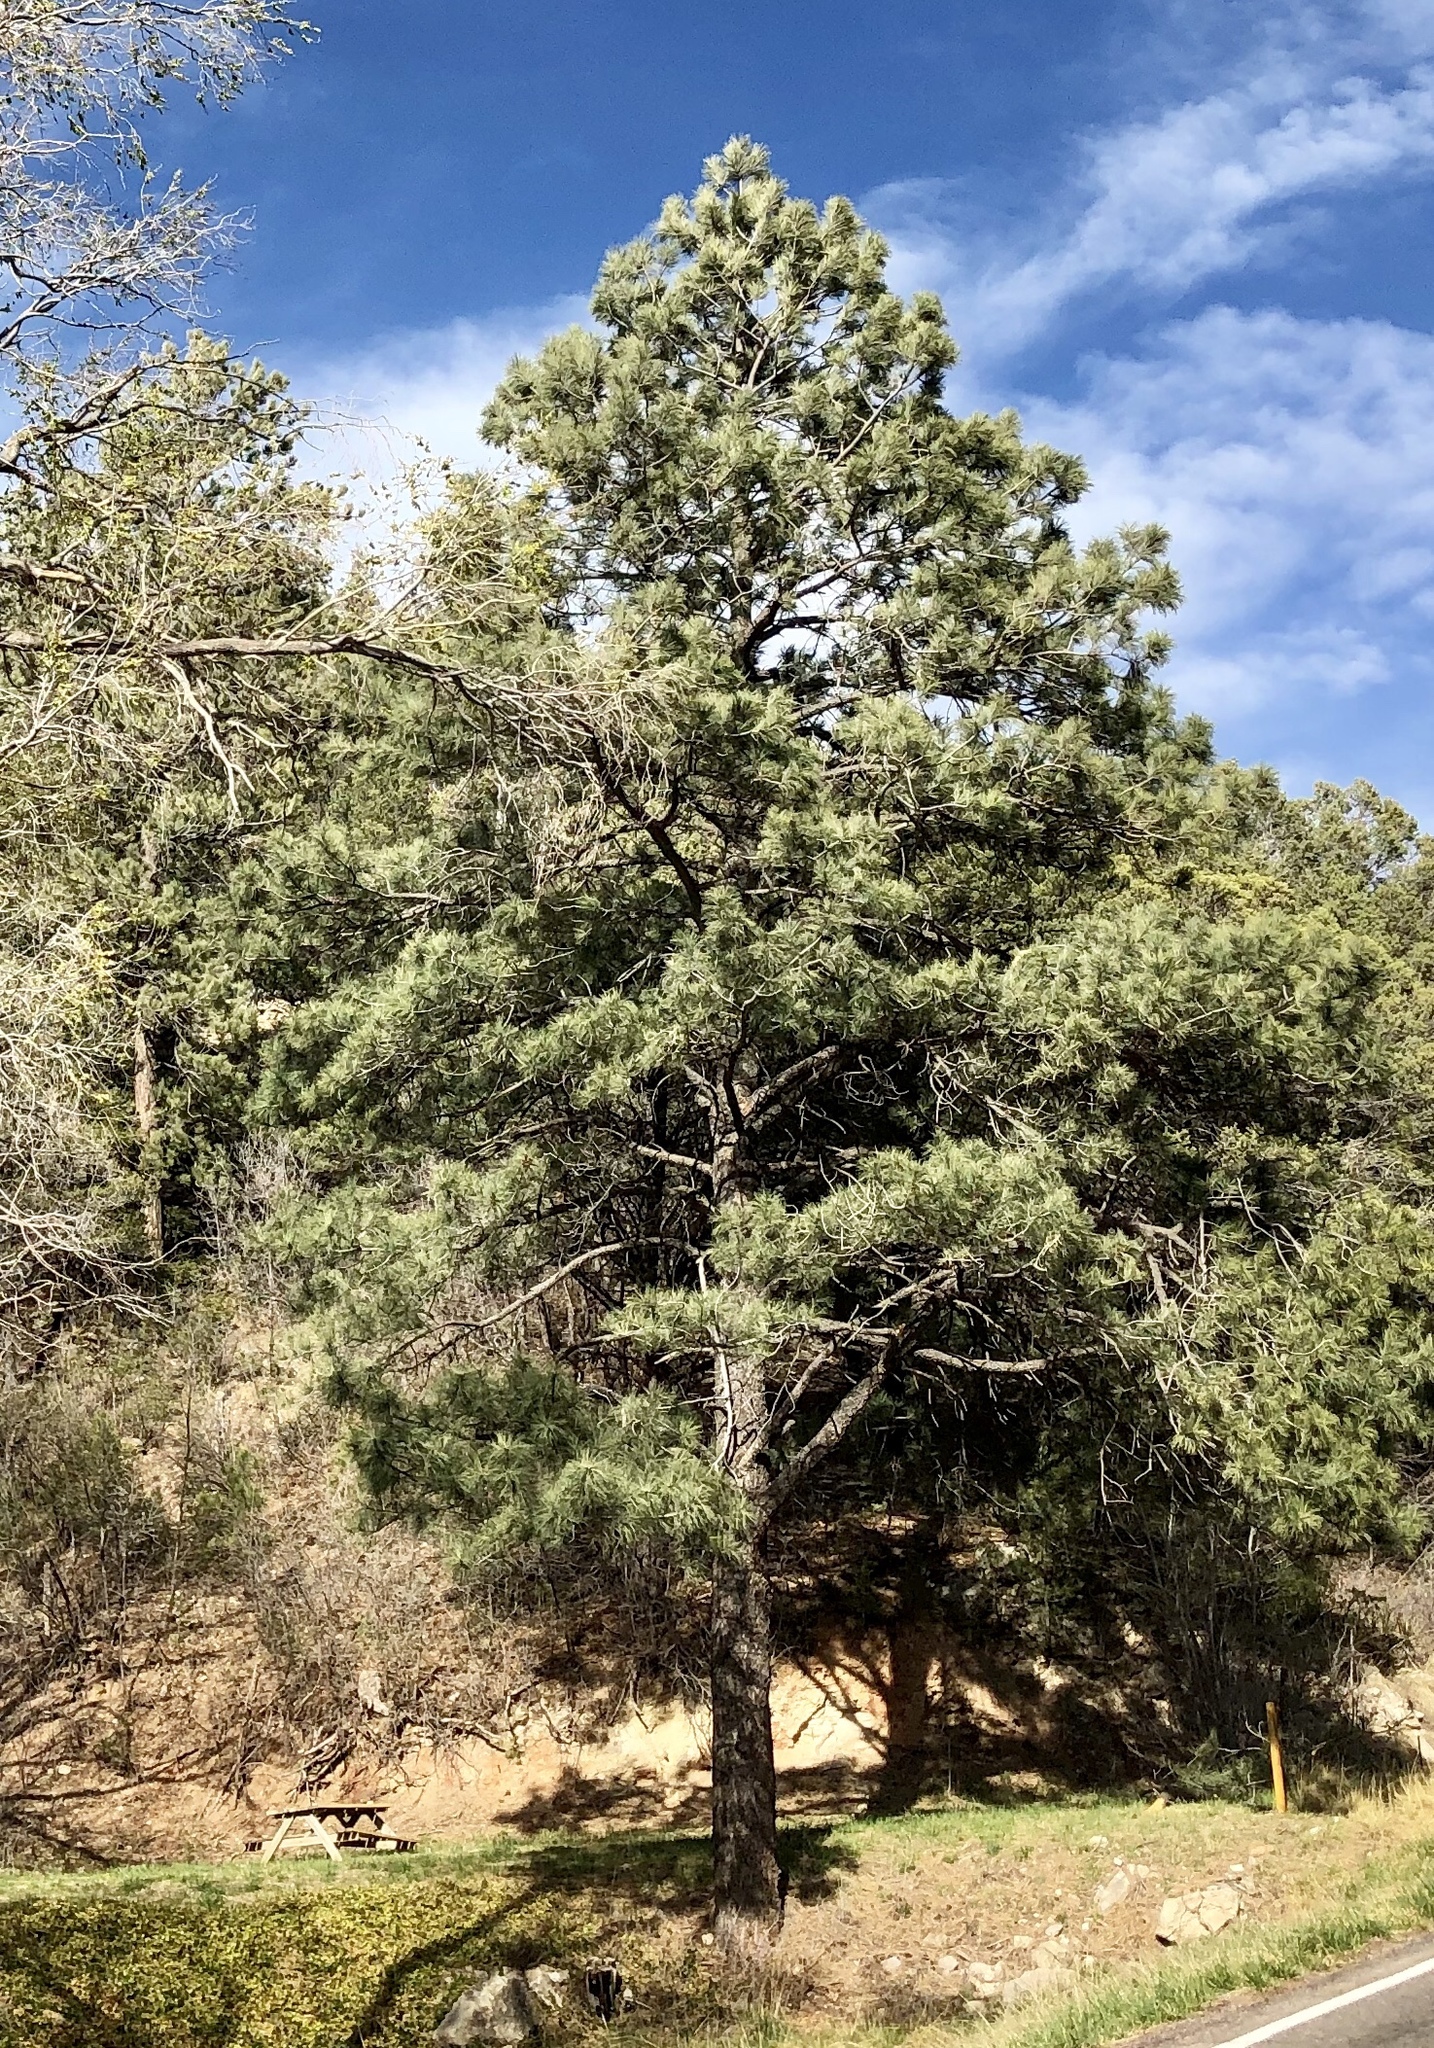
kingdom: Plantae
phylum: Tracheophyta
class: Pinopsida
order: Pinales
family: Pinaceae
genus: Pinus
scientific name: Pinus ponderosa
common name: Western yellow-pine
